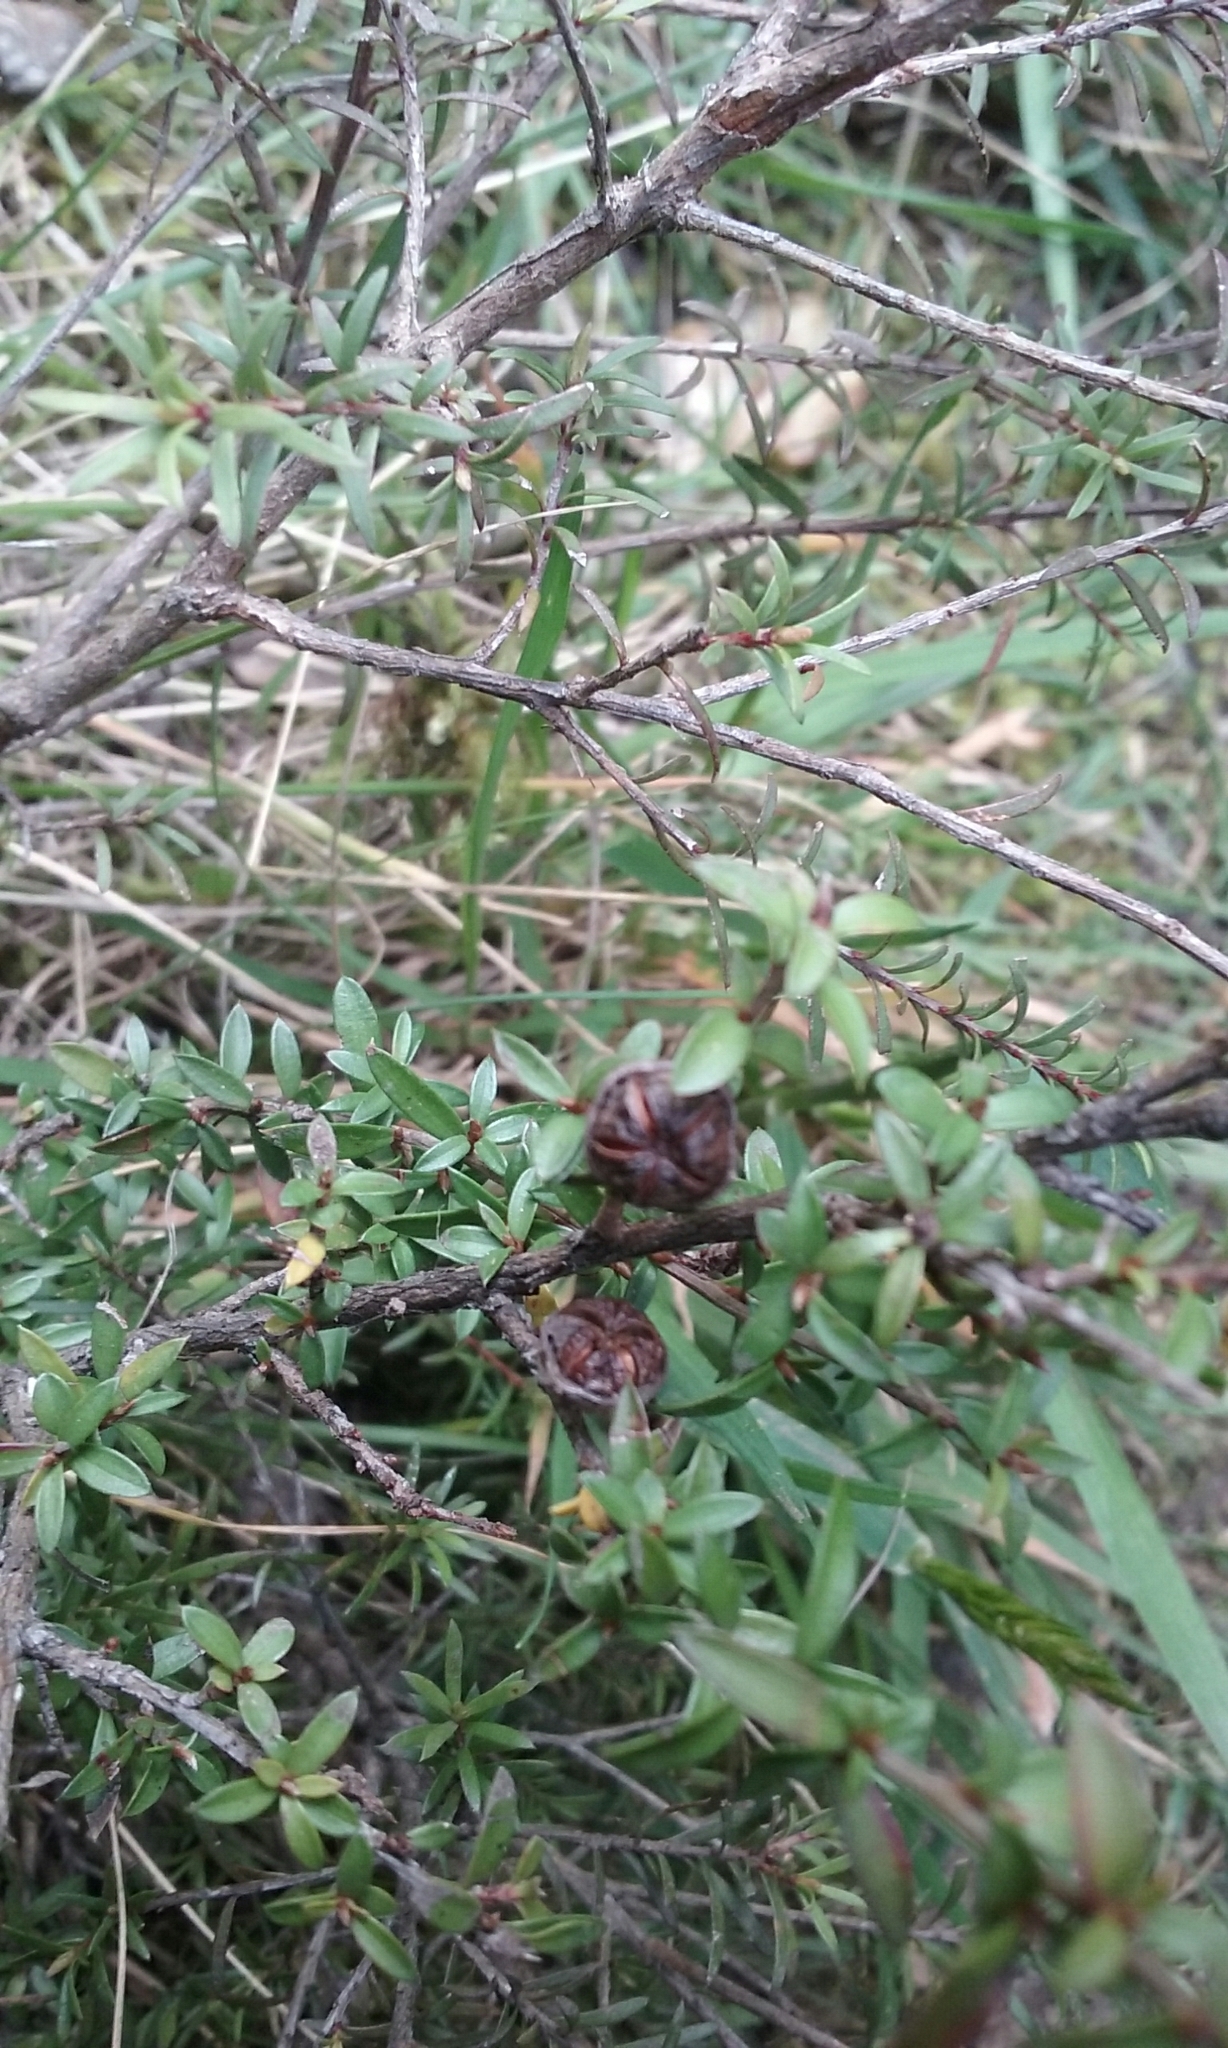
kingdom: Plantae
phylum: Tracheophyta
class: Magnoliopsida
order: Myrtales
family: Myrtaceae
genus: Leptospermum
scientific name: Leptospermum scoparium
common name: Broom tea-tree
